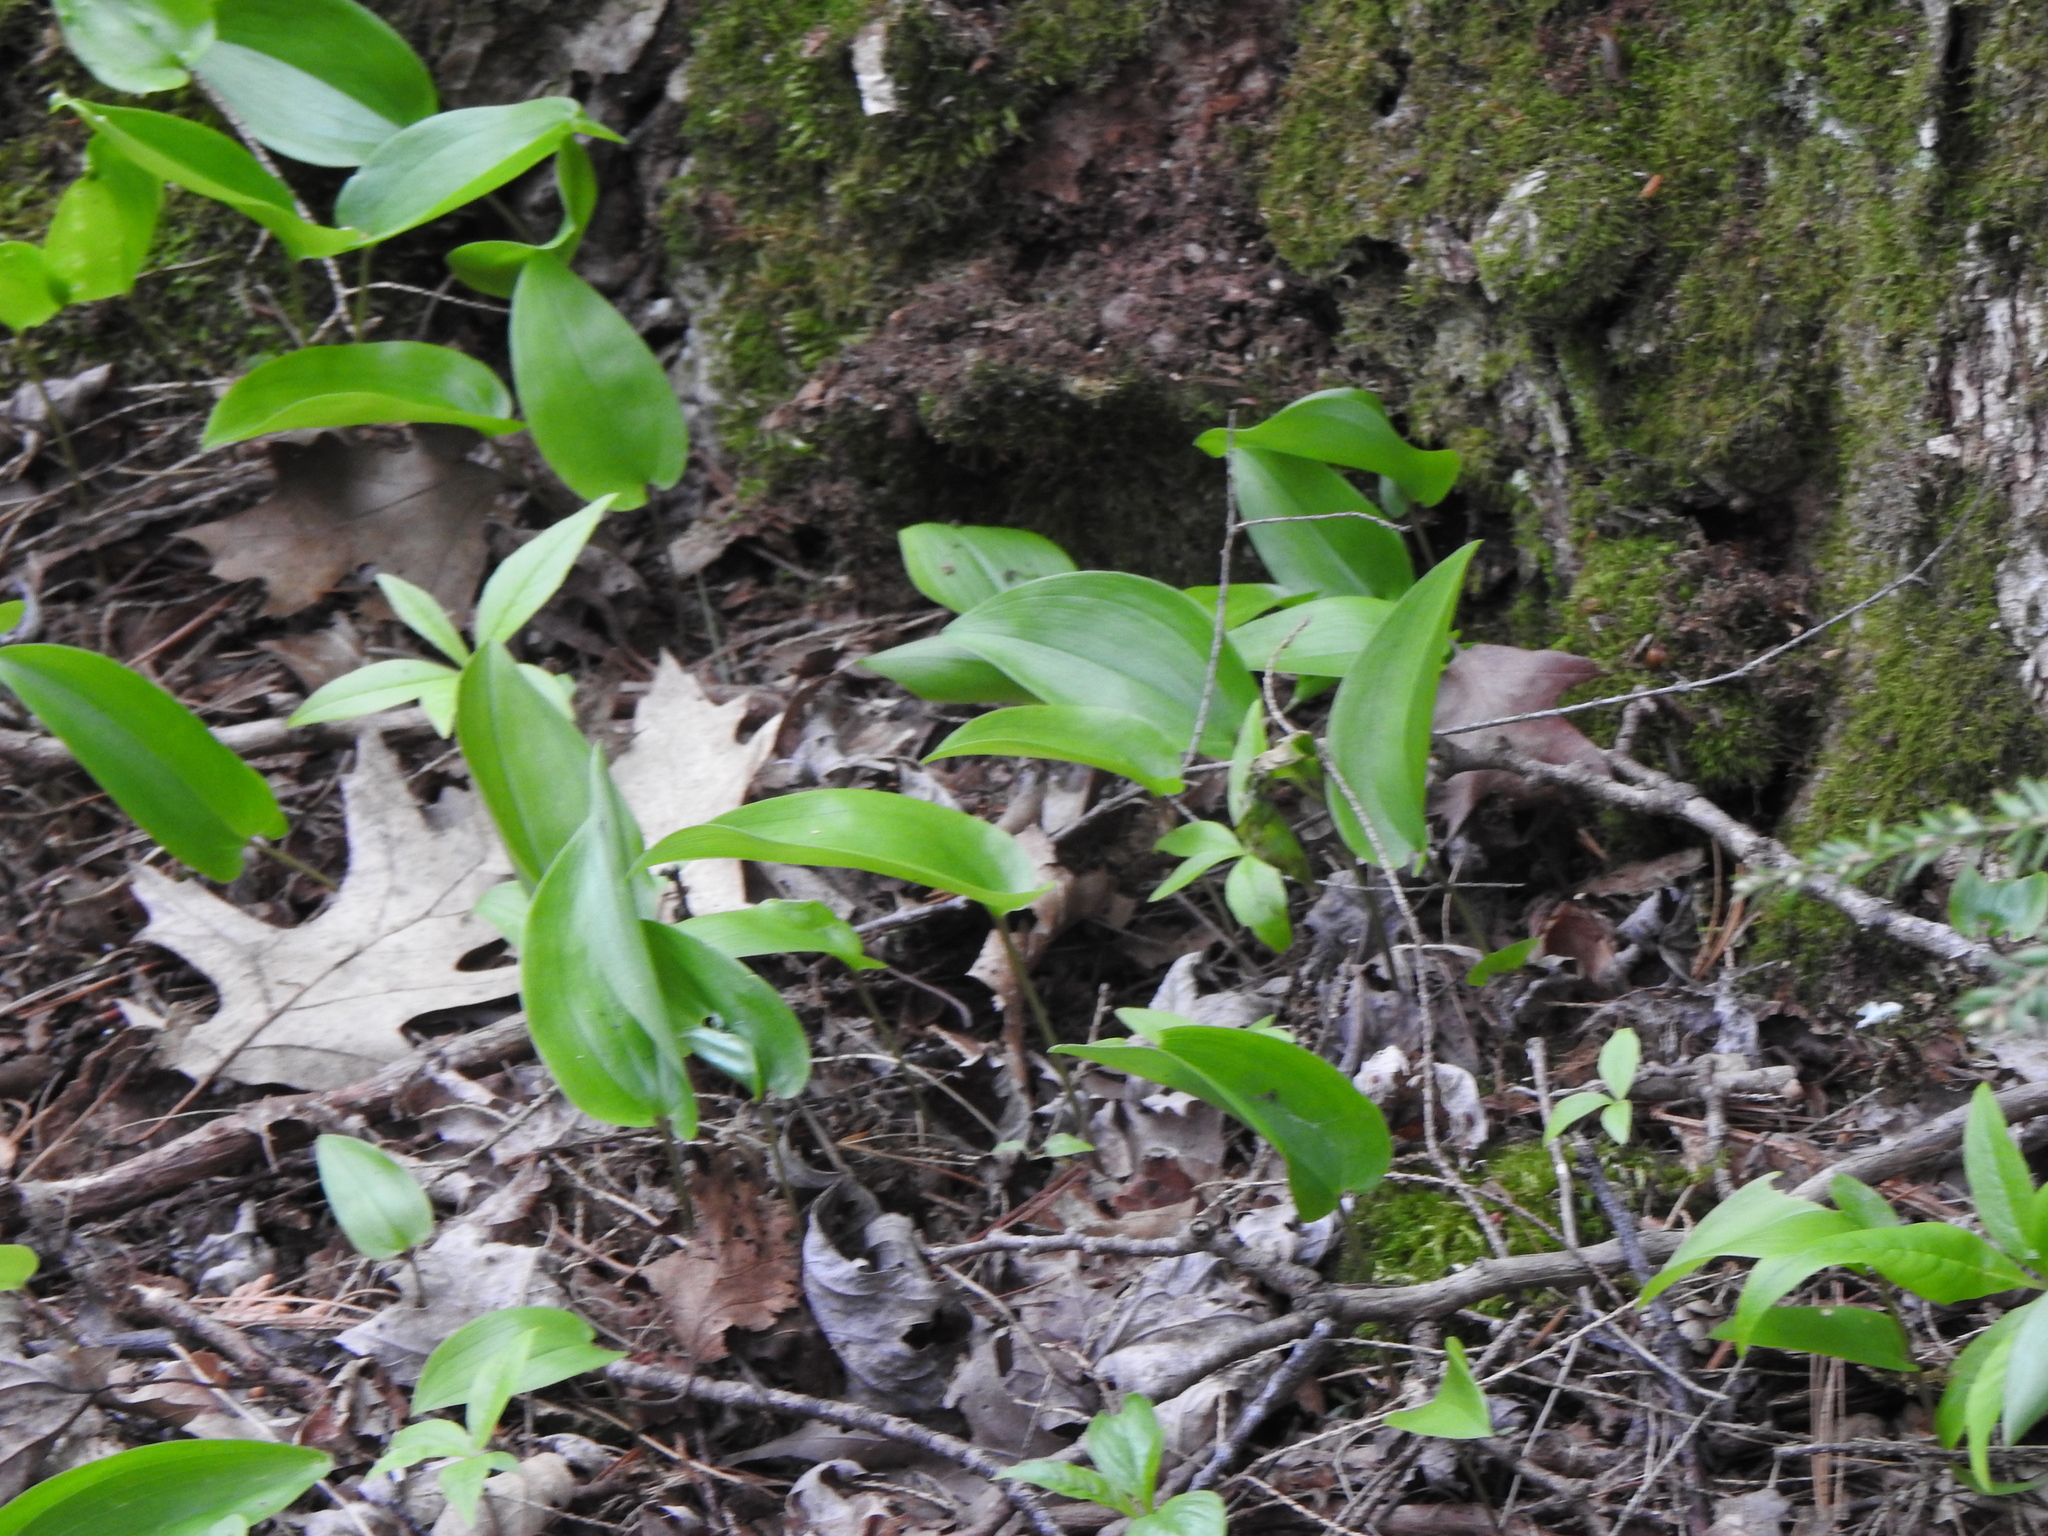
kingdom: Plantae
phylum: Tracheophyta
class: Liliopsida
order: Asparagales
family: Asparagaceae
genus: Maianthemum
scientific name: Maianthemum canadense
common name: False lily-of-the-valley
